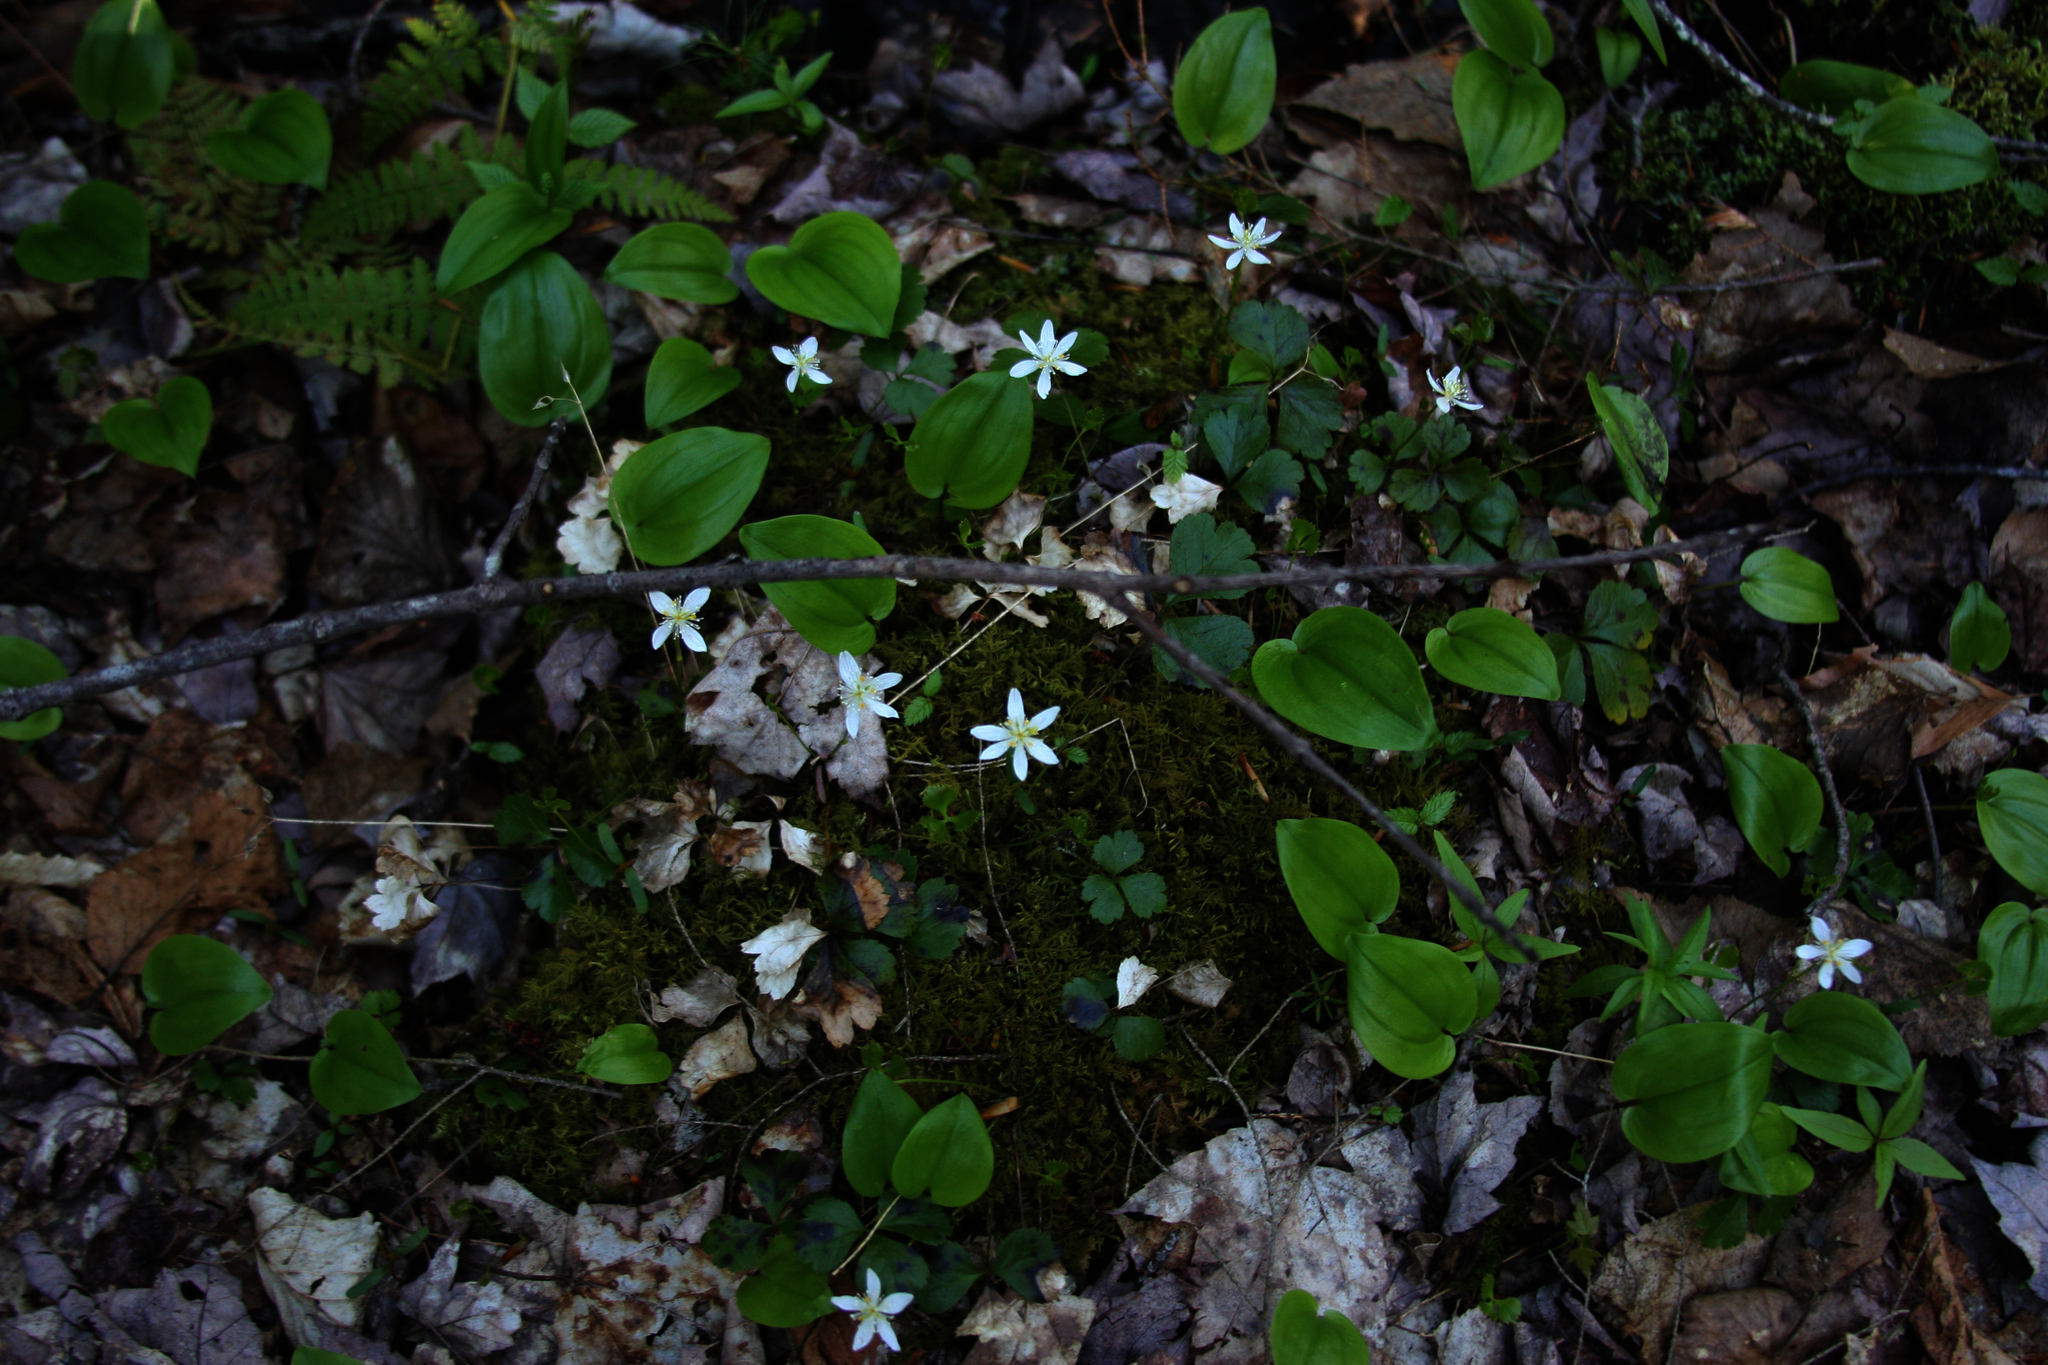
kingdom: Plantae
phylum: Tracheophyta
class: Magnoliopsida
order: Ranunculales
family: Ranunculaceae
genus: Coptis
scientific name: Coptis trifolia
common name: Canker-root
